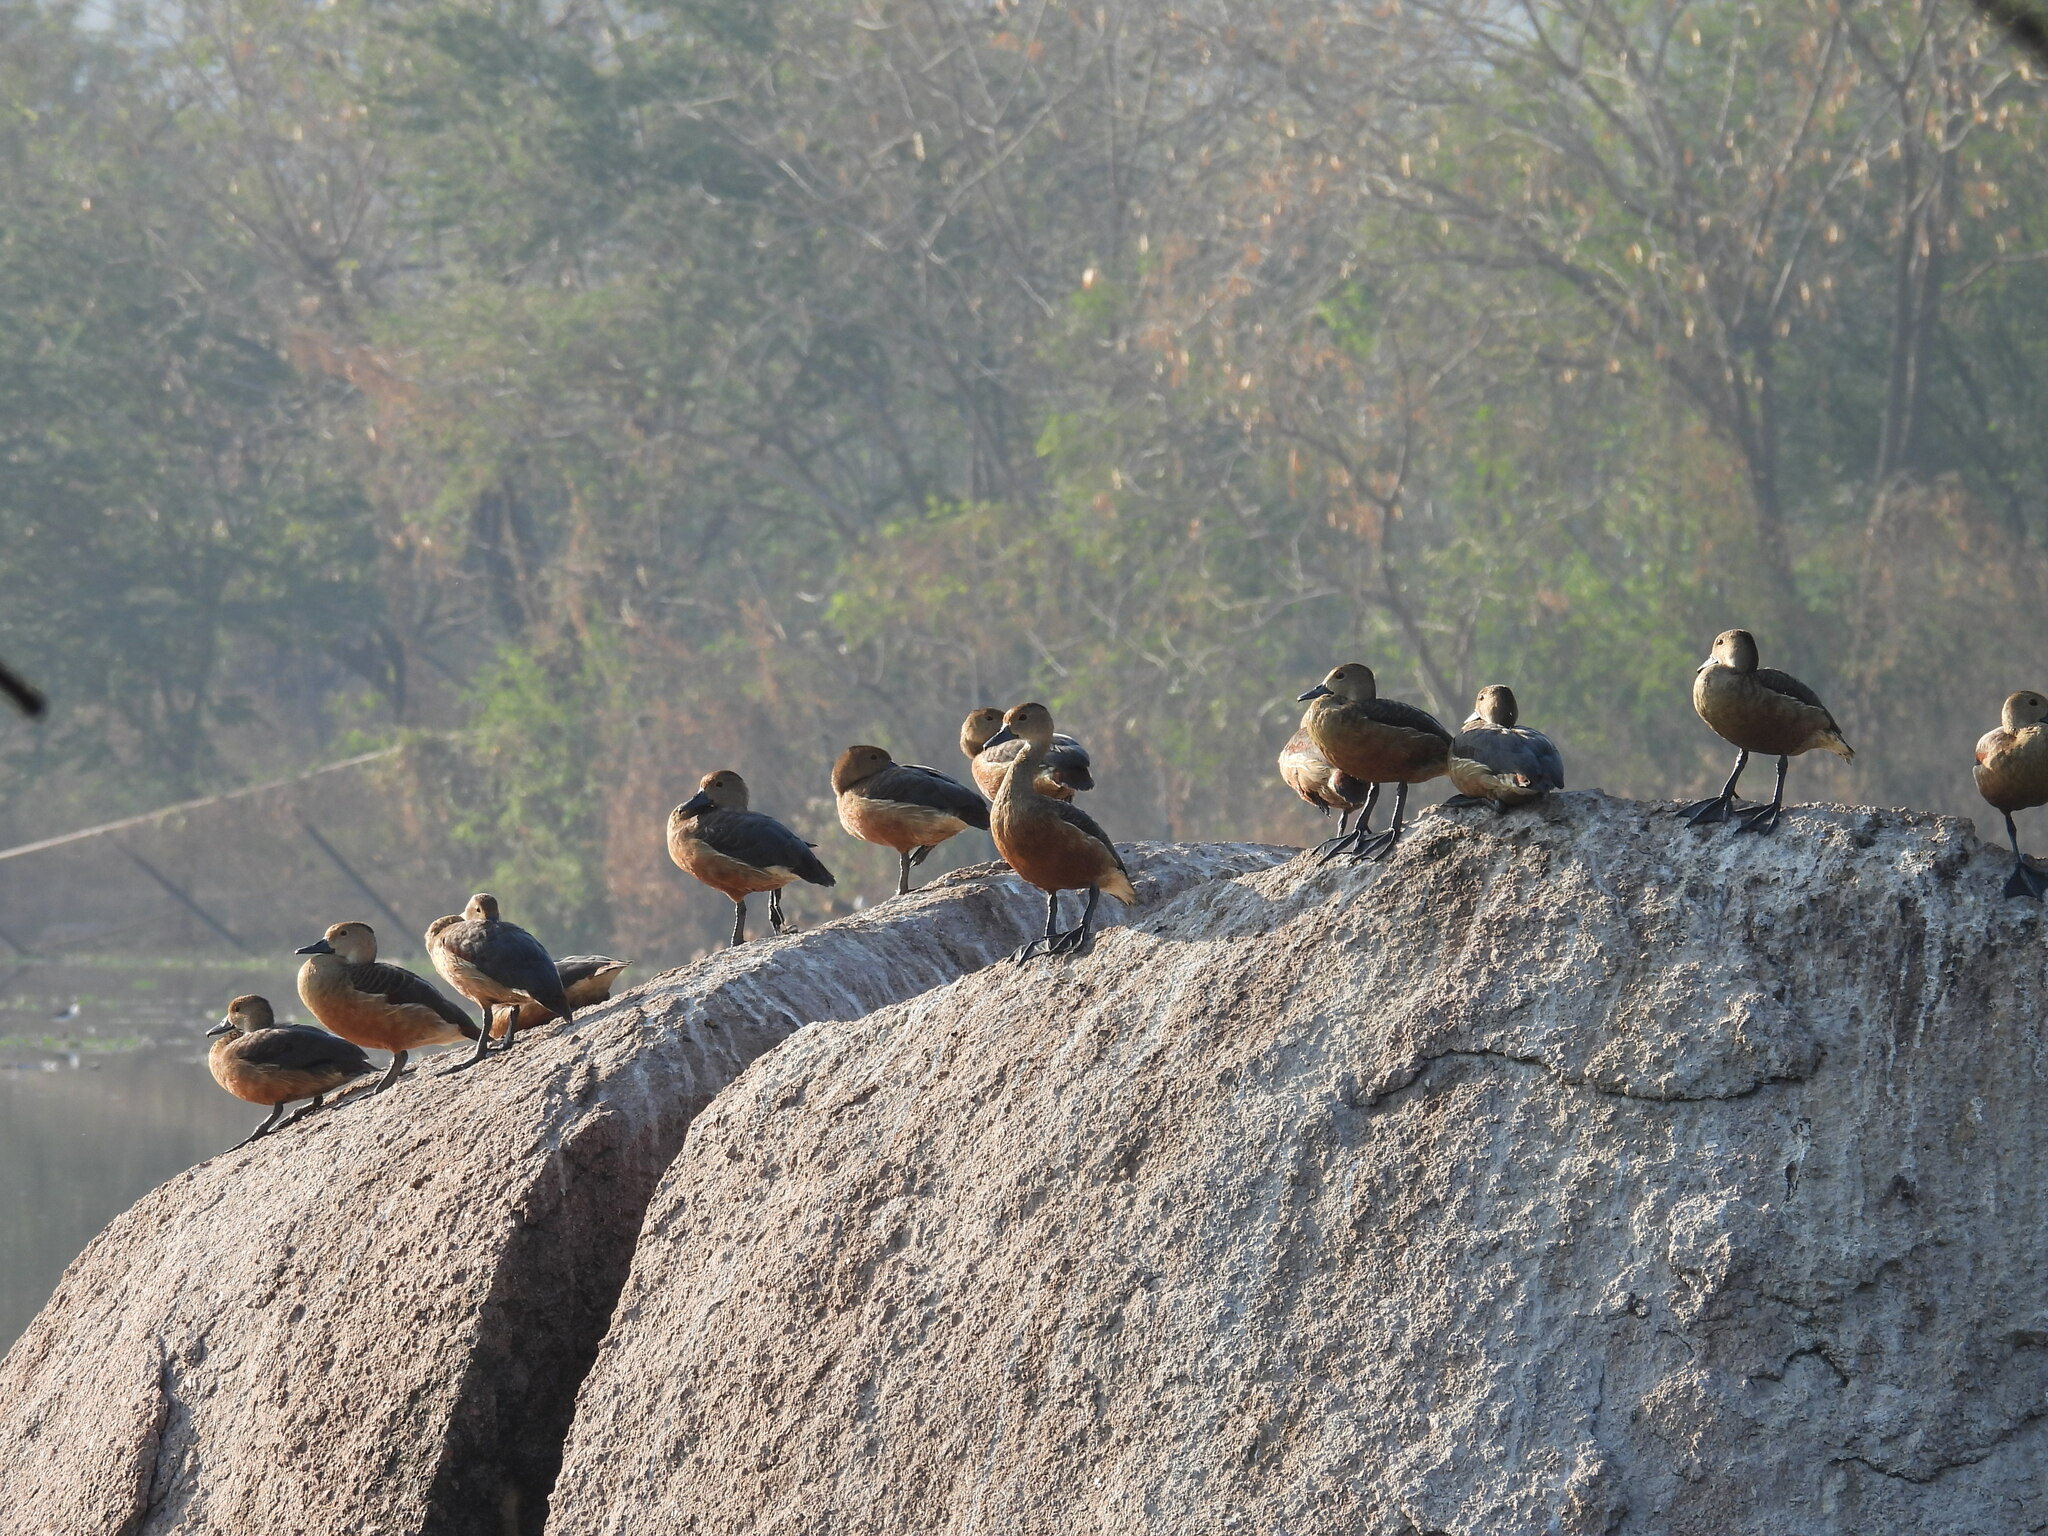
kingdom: Animalia
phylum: Chordata
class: Aves
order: Anseriformes
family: Anatidae
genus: Dendrocygna
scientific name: Dendrocygna javanica
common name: Lesser whistling-duck
